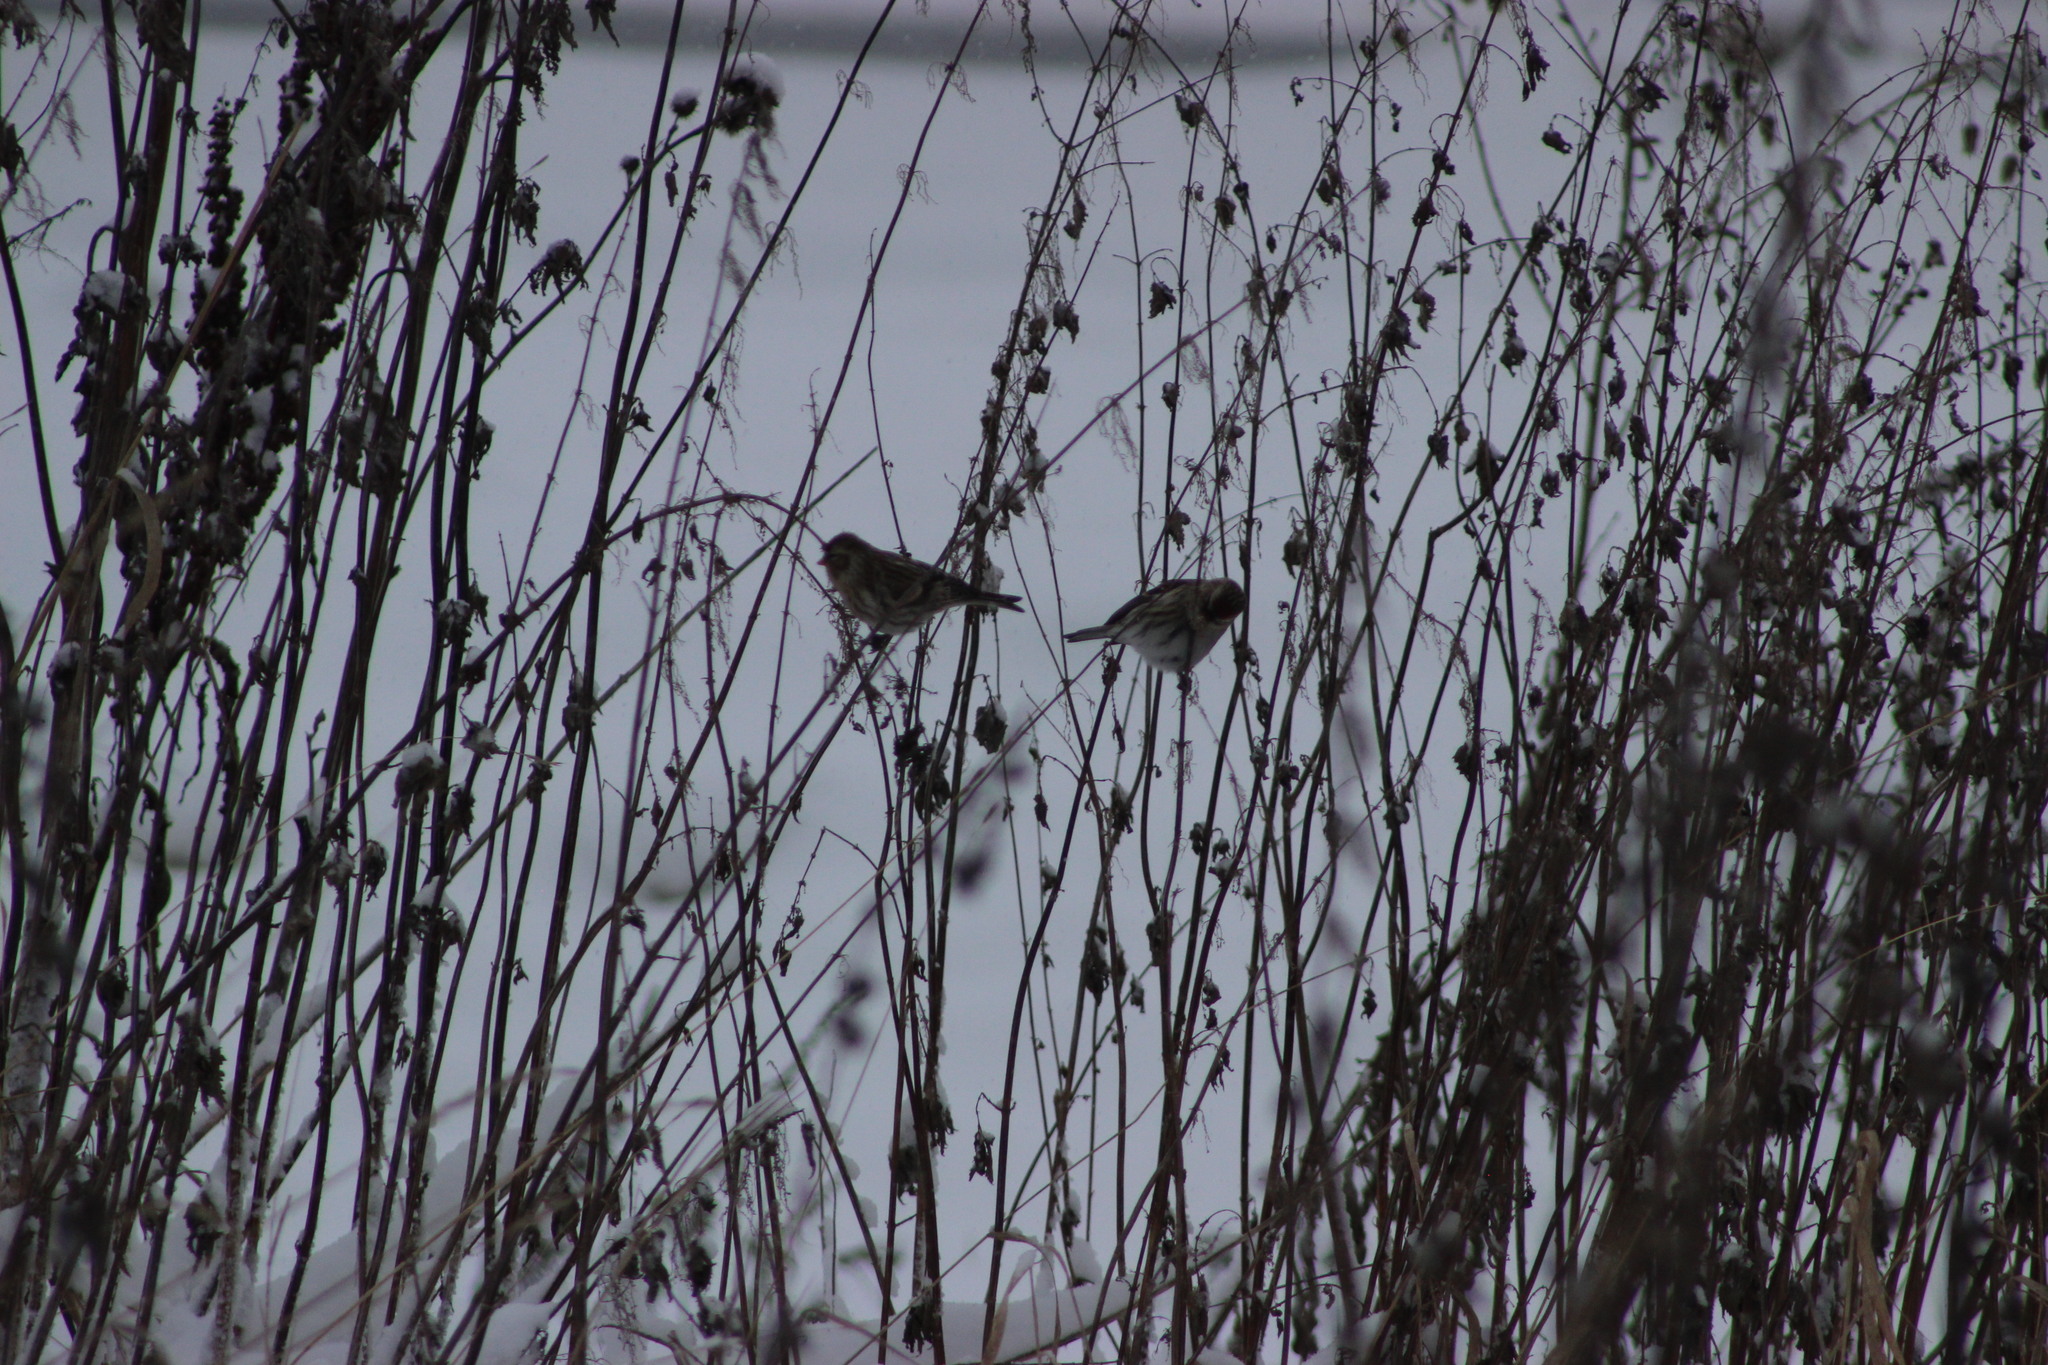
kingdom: Animalia
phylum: Chordata
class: Aves
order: Passeriformes
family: Fringillidae
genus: Acanthis
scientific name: Acanthis flammea
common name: Common redpoll
